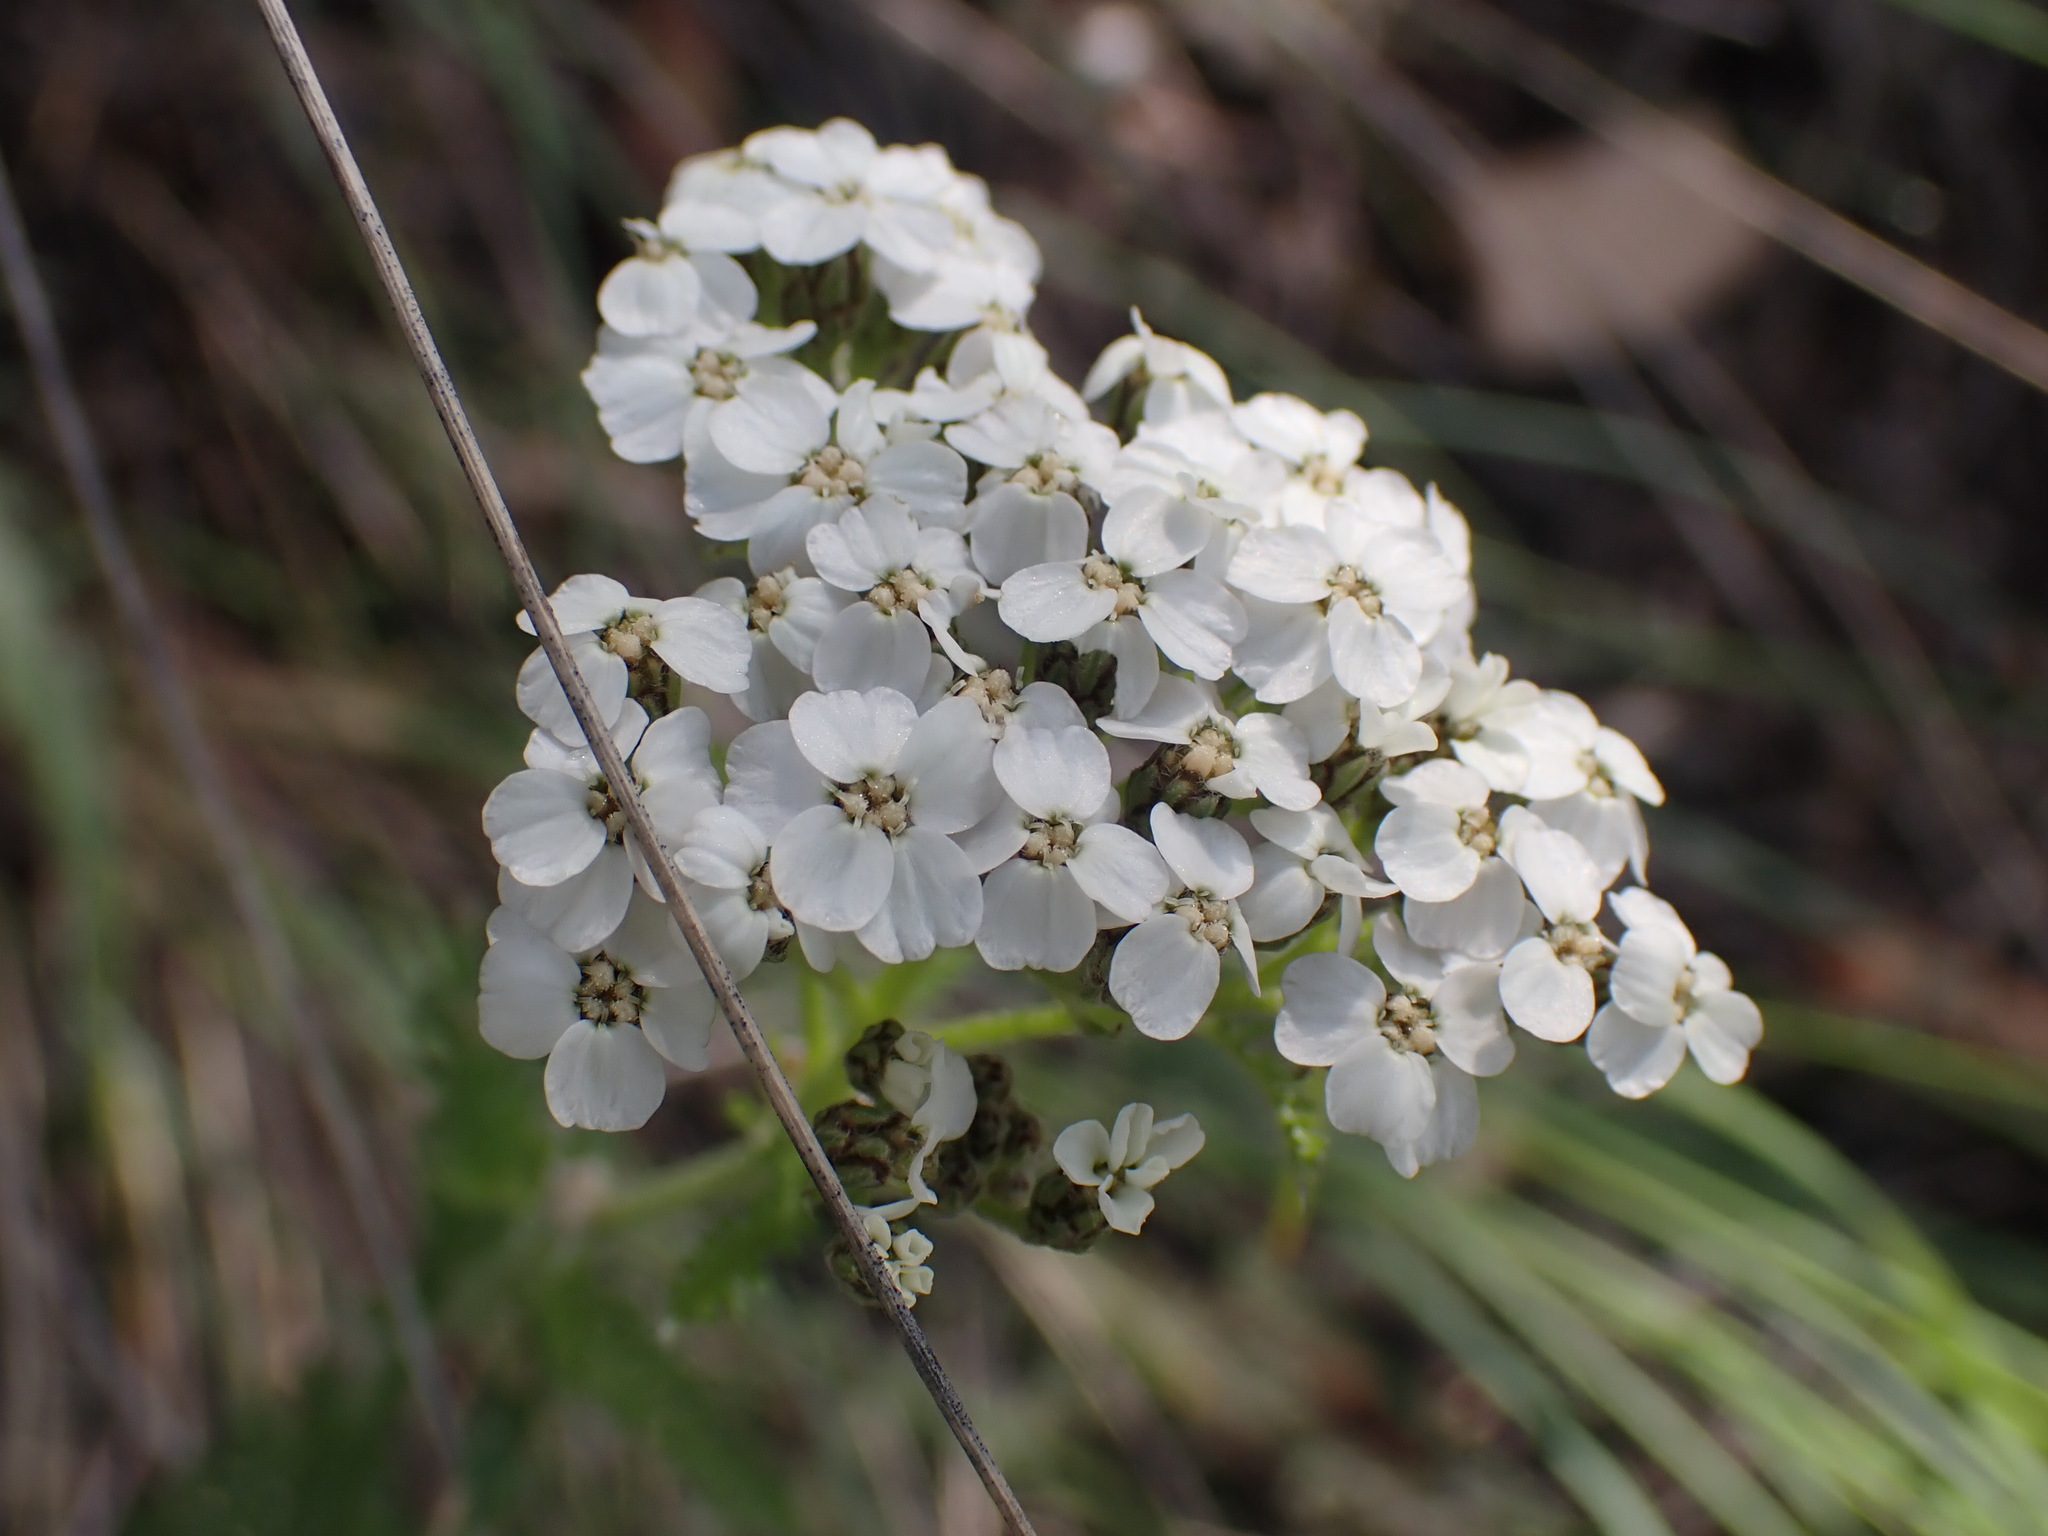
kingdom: Plantae
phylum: Tracheophyta
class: Magnoliopsida
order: Asterales
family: Asteraceae
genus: Achillea
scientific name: Achillea millefolium
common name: Yarrow
